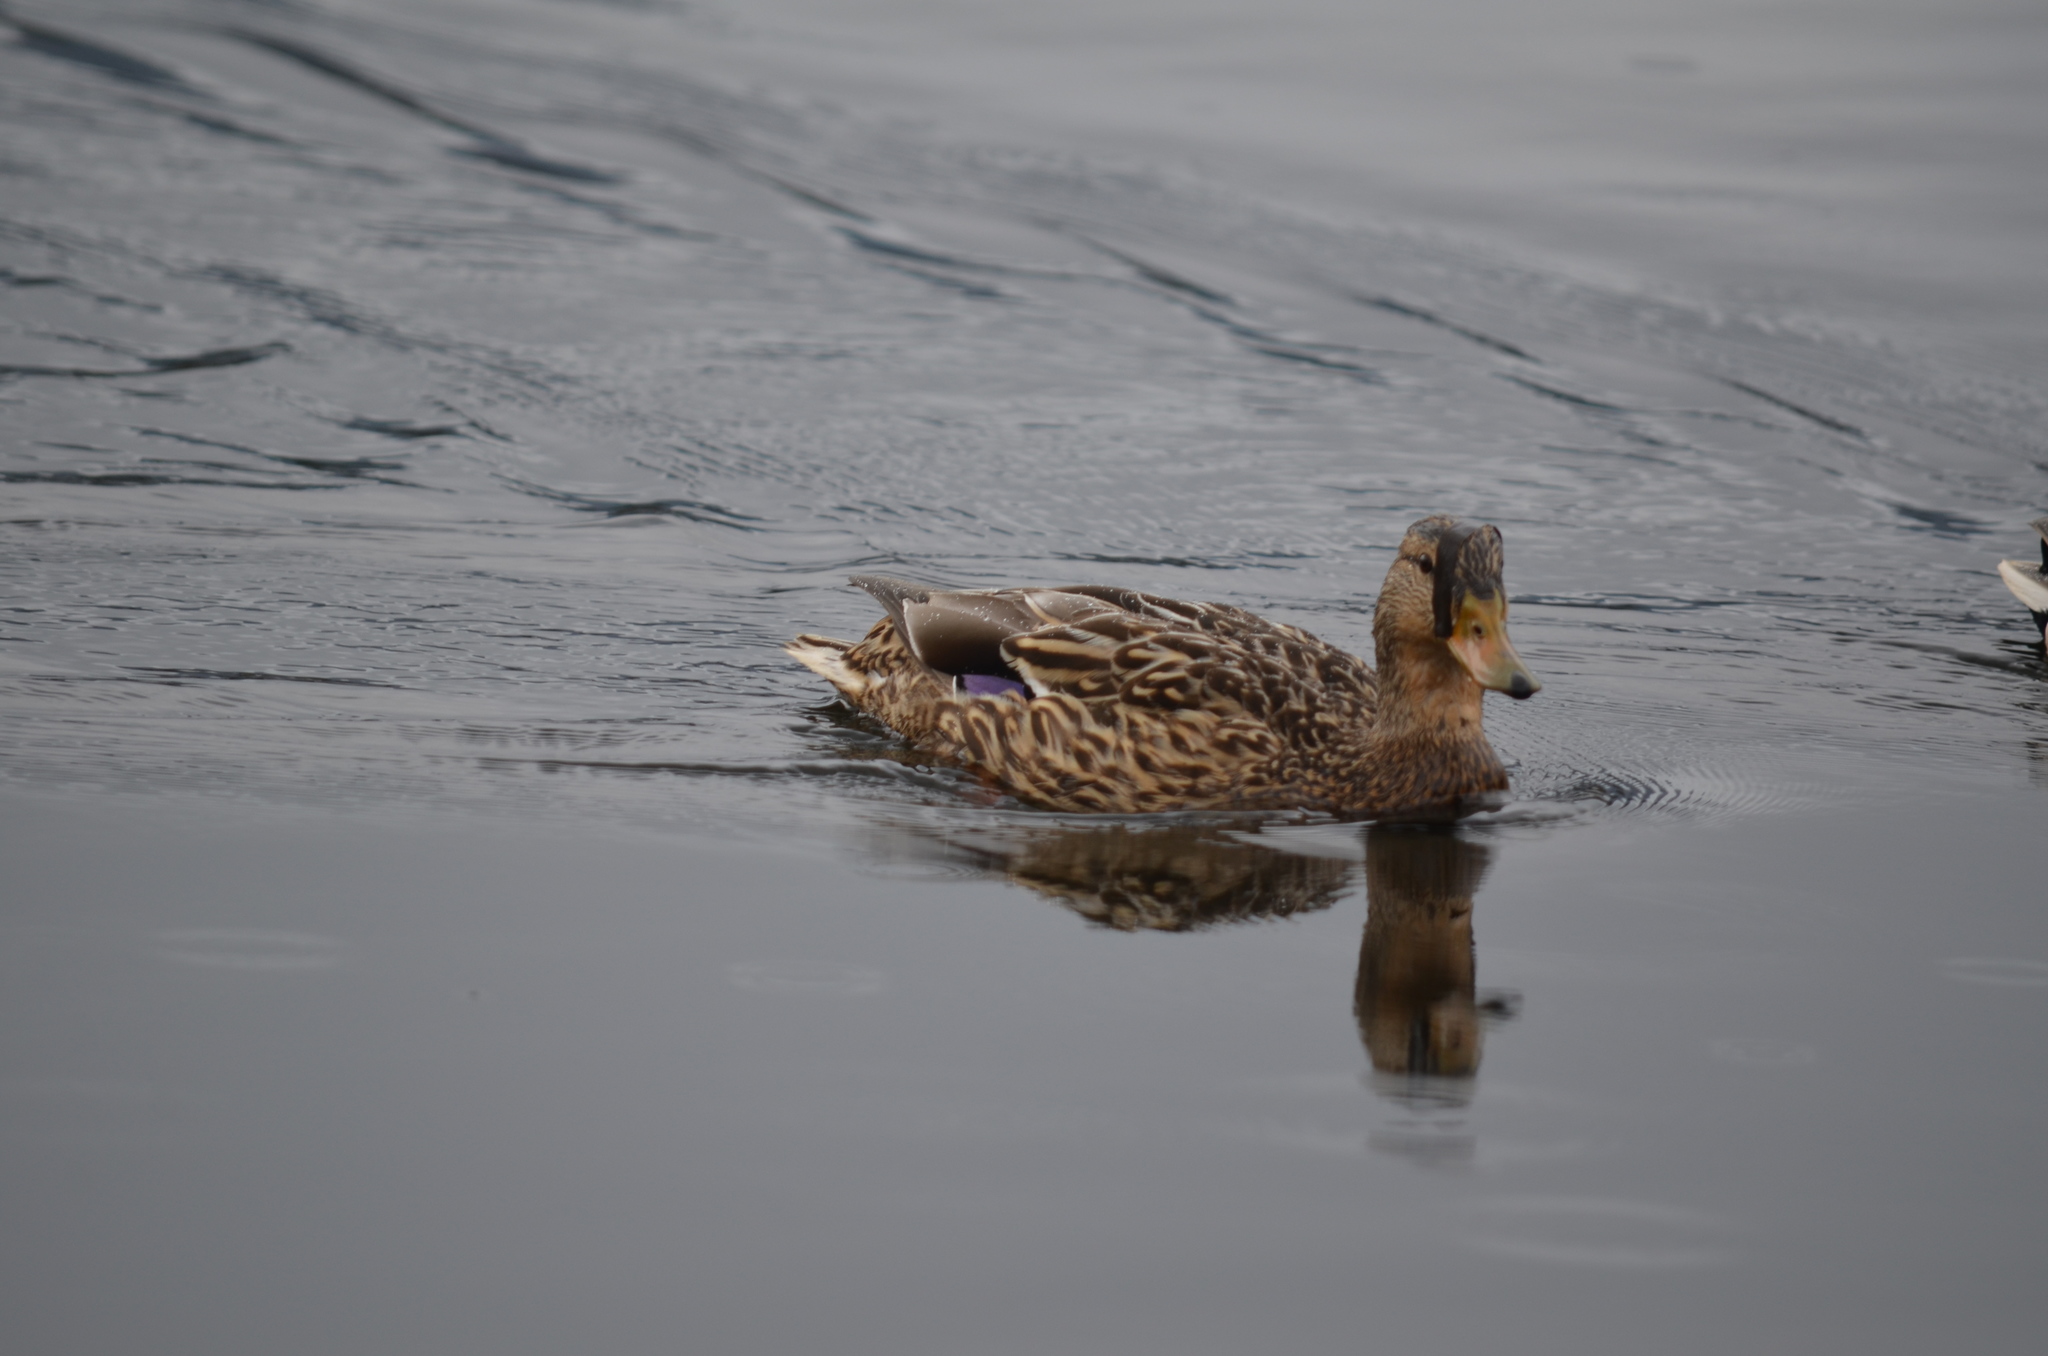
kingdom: Animalia
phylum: Chordata
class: Aves
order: Anseriformes
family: Anatidae
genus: Anas
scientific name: Anas platyrhynchos
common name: Mallard
